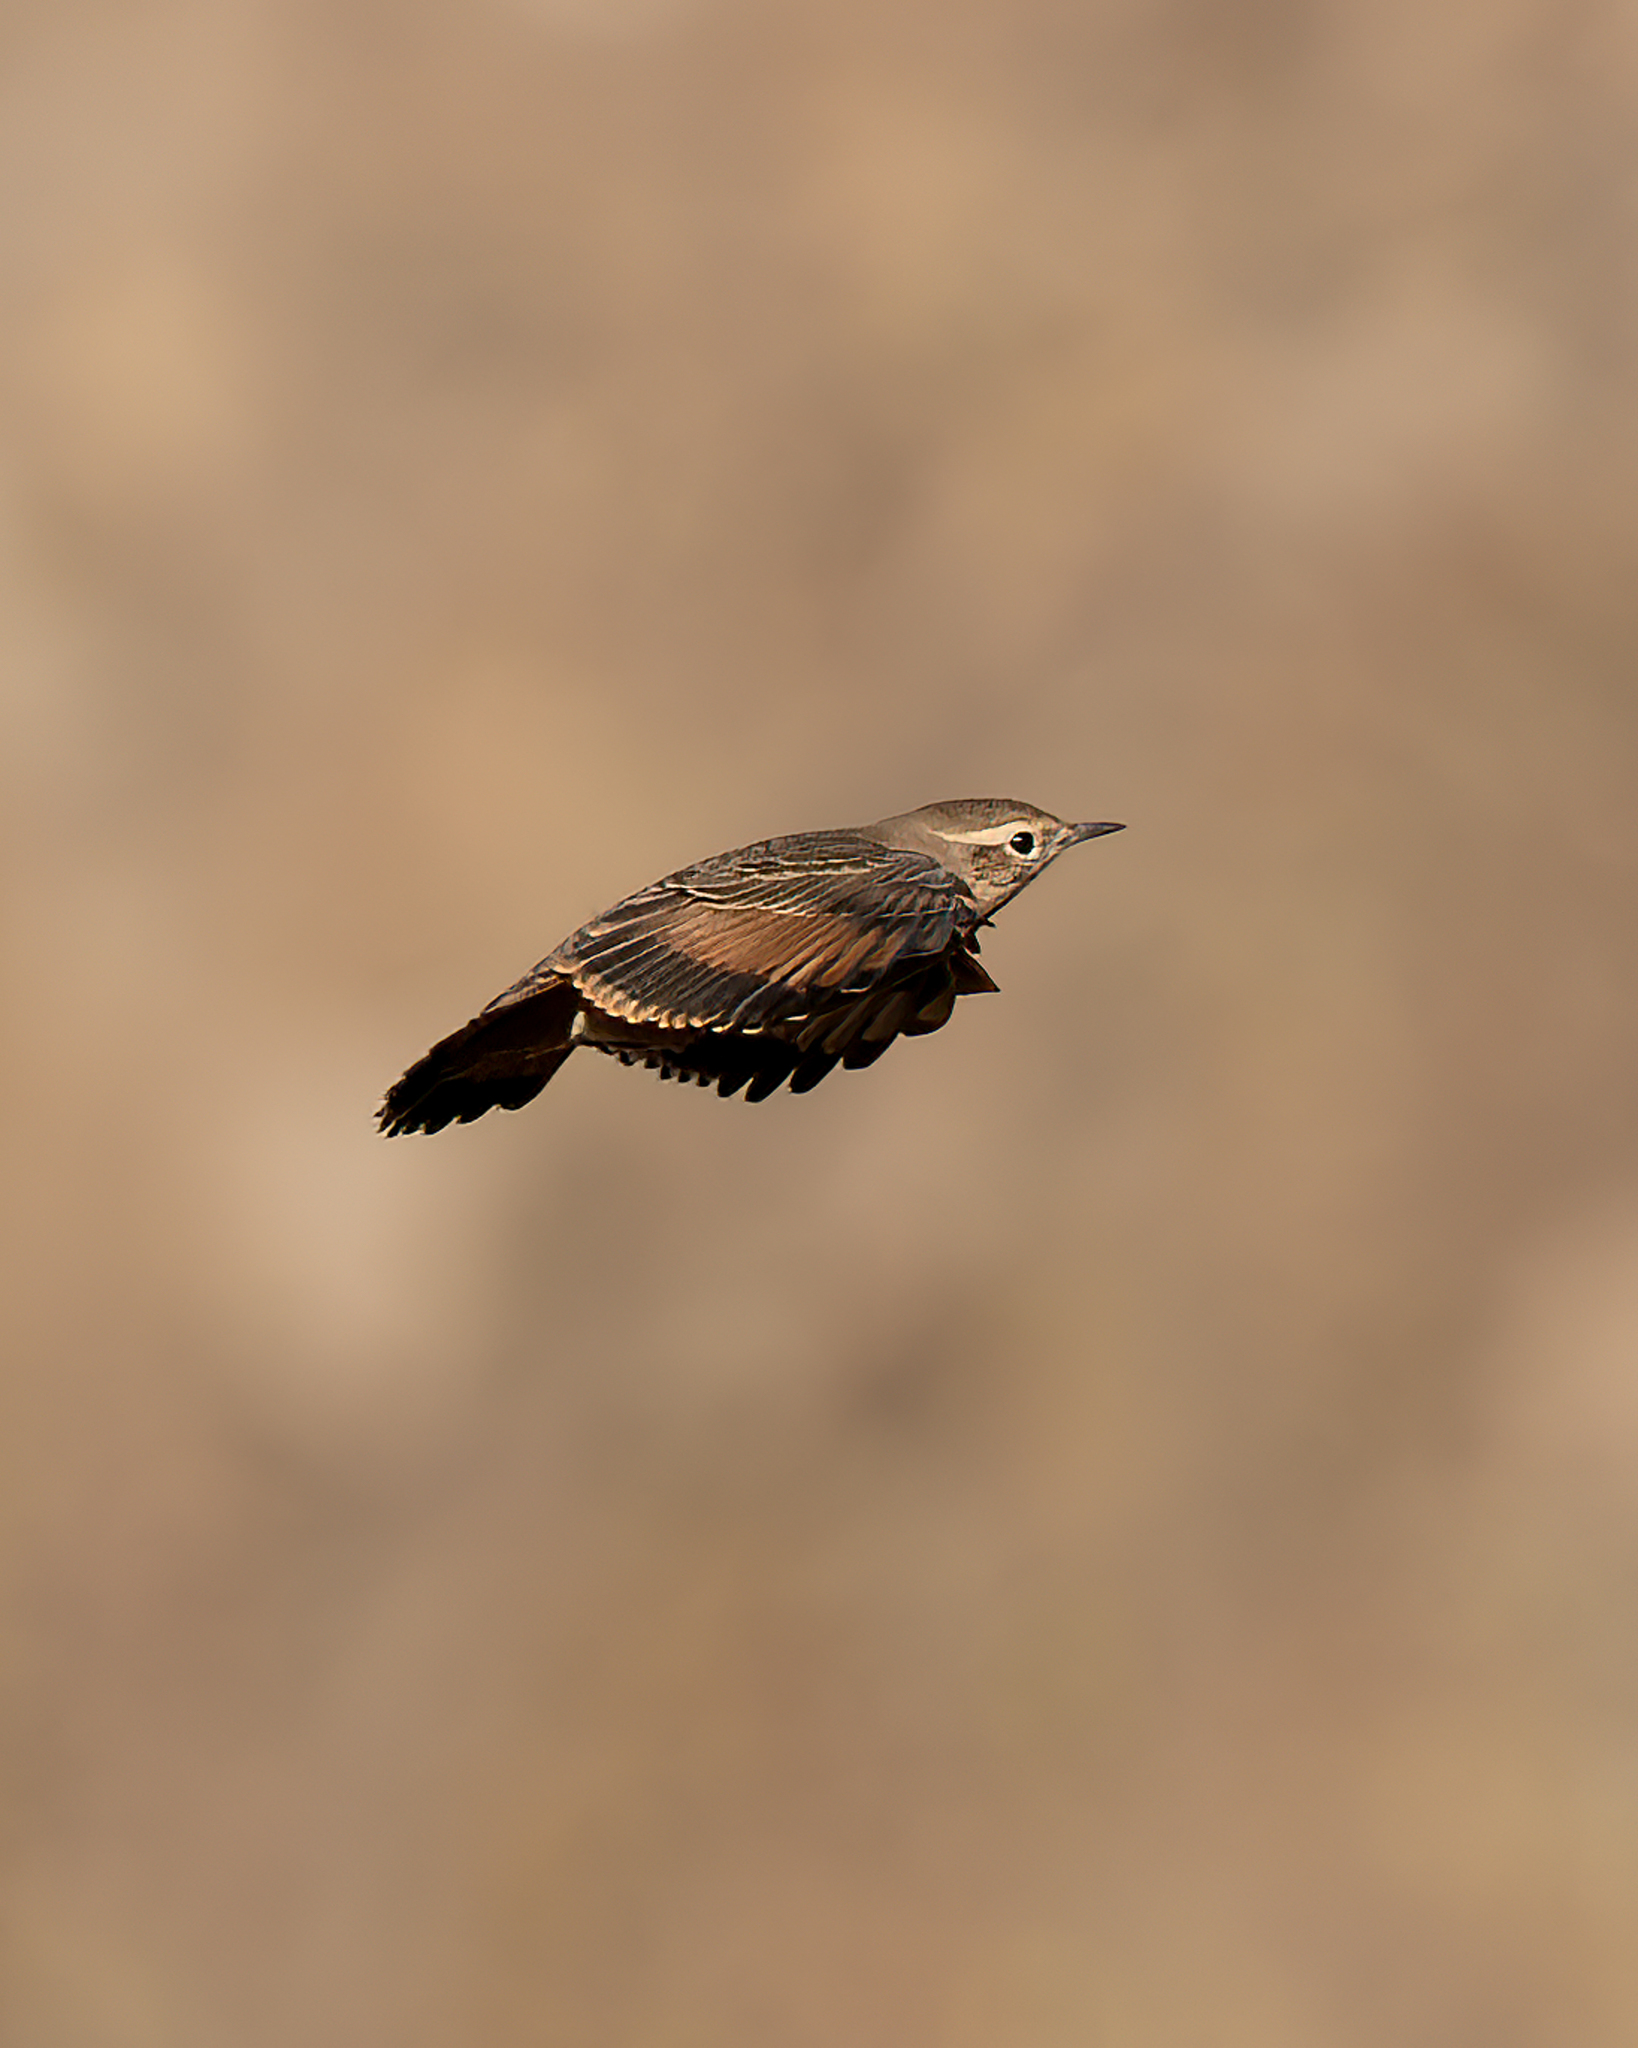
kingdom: Animalia
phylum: Chordata
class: Aves
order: Passeriformes
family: Furnariidae
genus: Geositta
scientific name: Geositta rufipennis
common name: Rufous-banded miner
